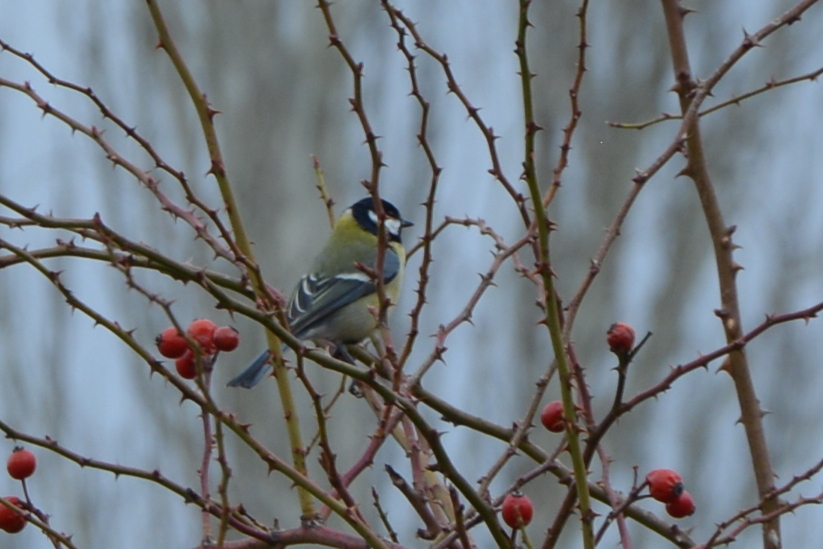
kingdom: Animalia
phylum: Chordata
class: Aves
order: Passeriformes
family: Paridae
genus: Parus
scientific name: Parus major
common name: Great tit
